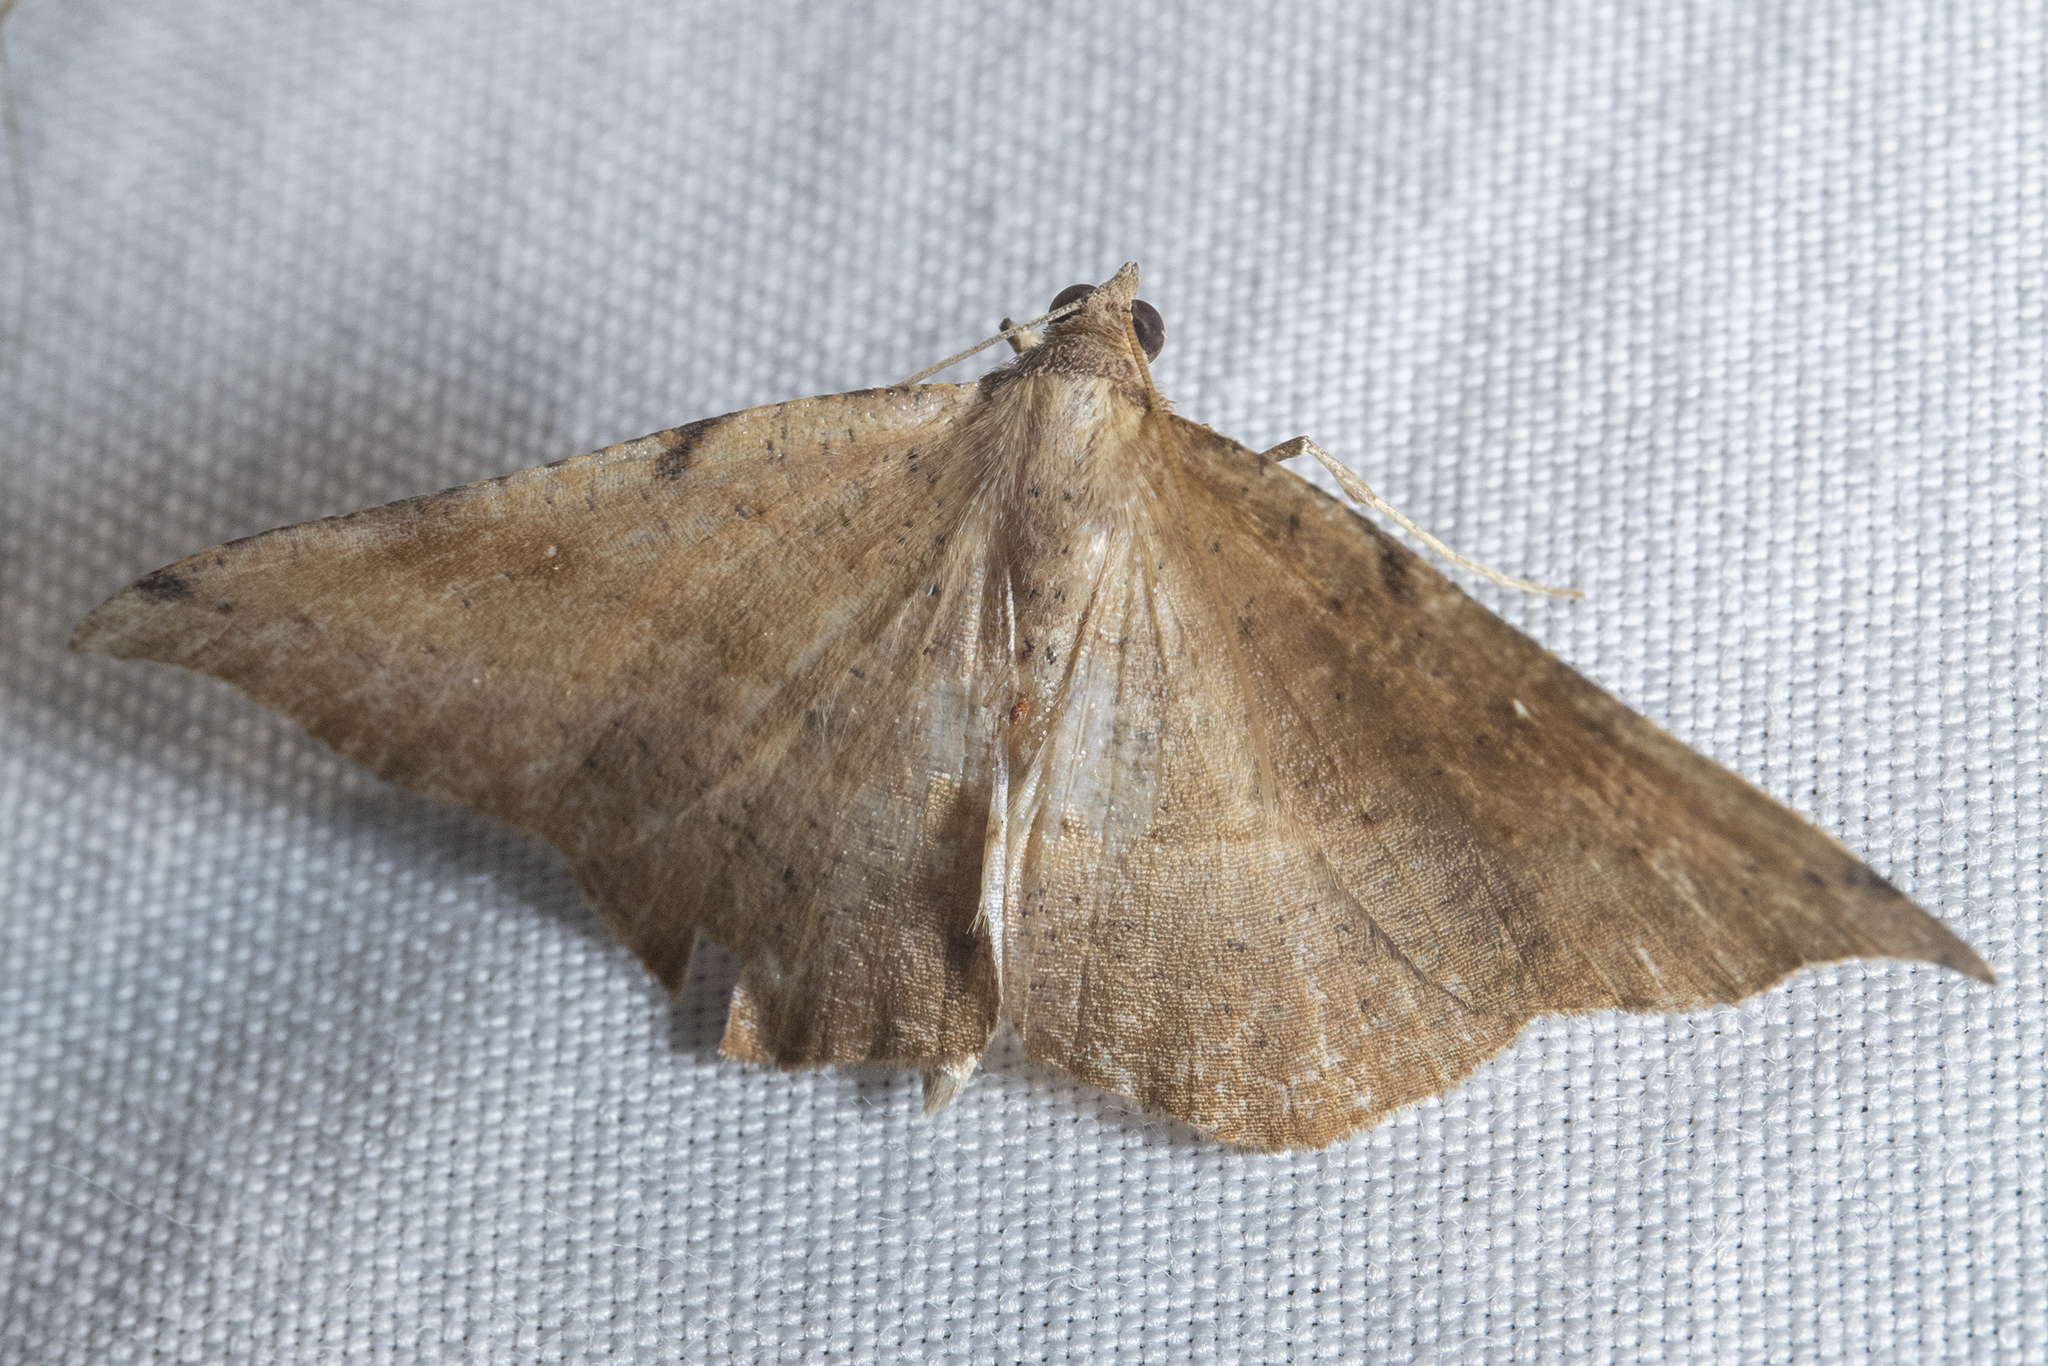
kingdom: Animalia
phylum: Arthropoda
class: Insecta
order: Lepidoptera
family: Geometridae
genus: Sarisa
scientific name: Sarisa muriferata
